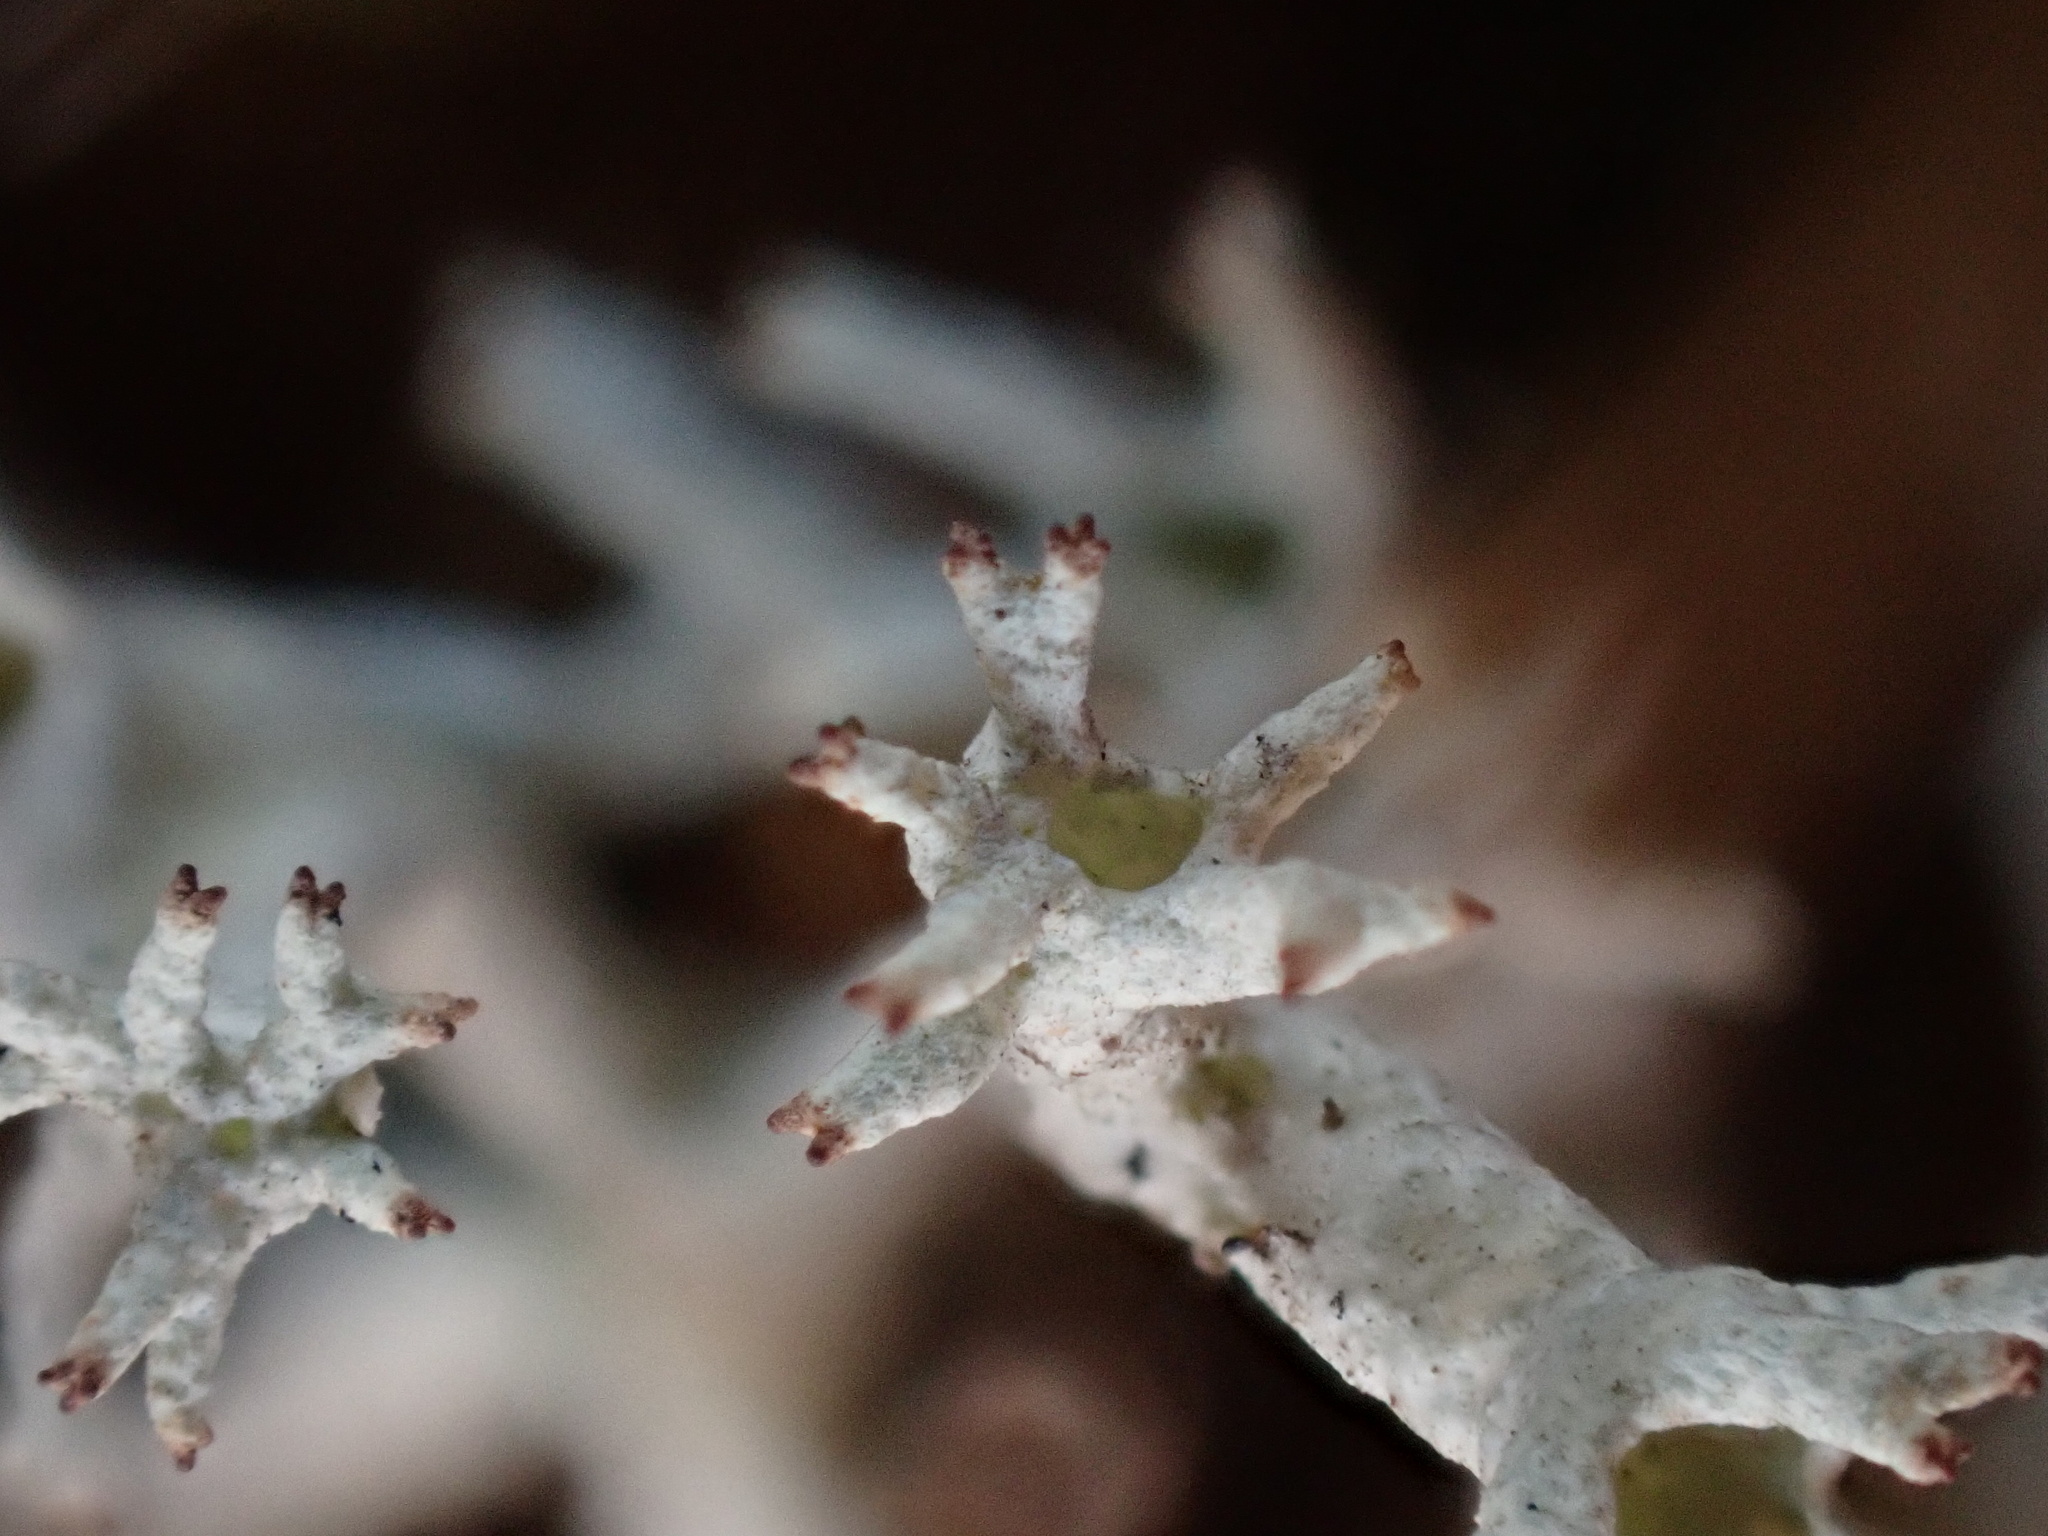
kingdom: Fungi
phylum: Ascomycota
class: Lecanoromycetes
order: Lecanorales
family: Cladoniaceae
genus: Cladonia
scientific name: Cladonia portentosa
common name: Reindeer lichen
